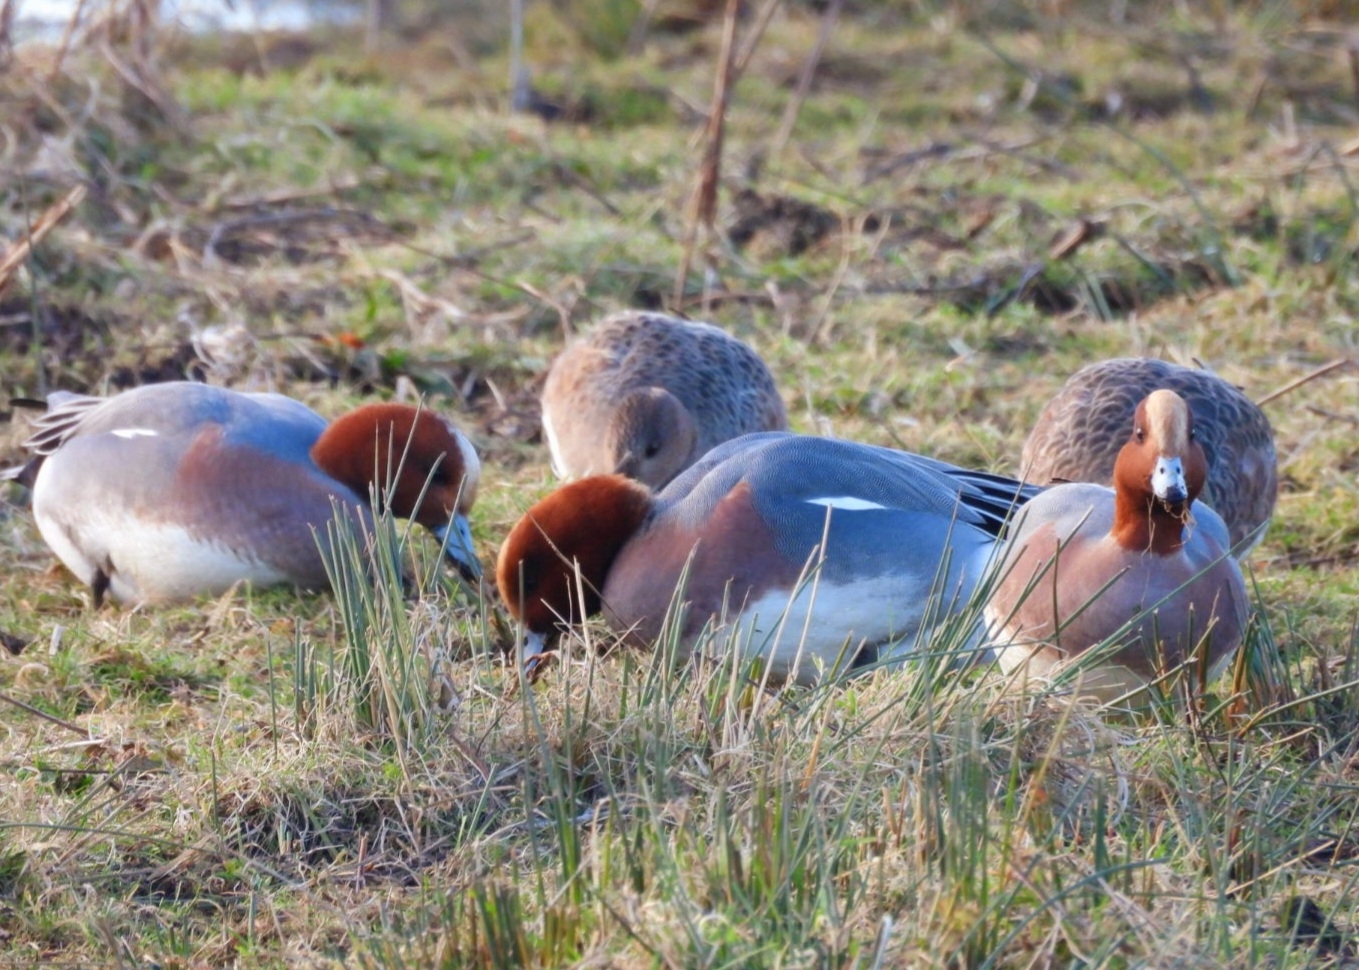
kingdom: Animalia
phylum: Chordata
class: Aves
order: Anseriformes
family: Anatidae
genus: Mareca
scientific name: Mareca penelope
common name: Eurasian wigeon
